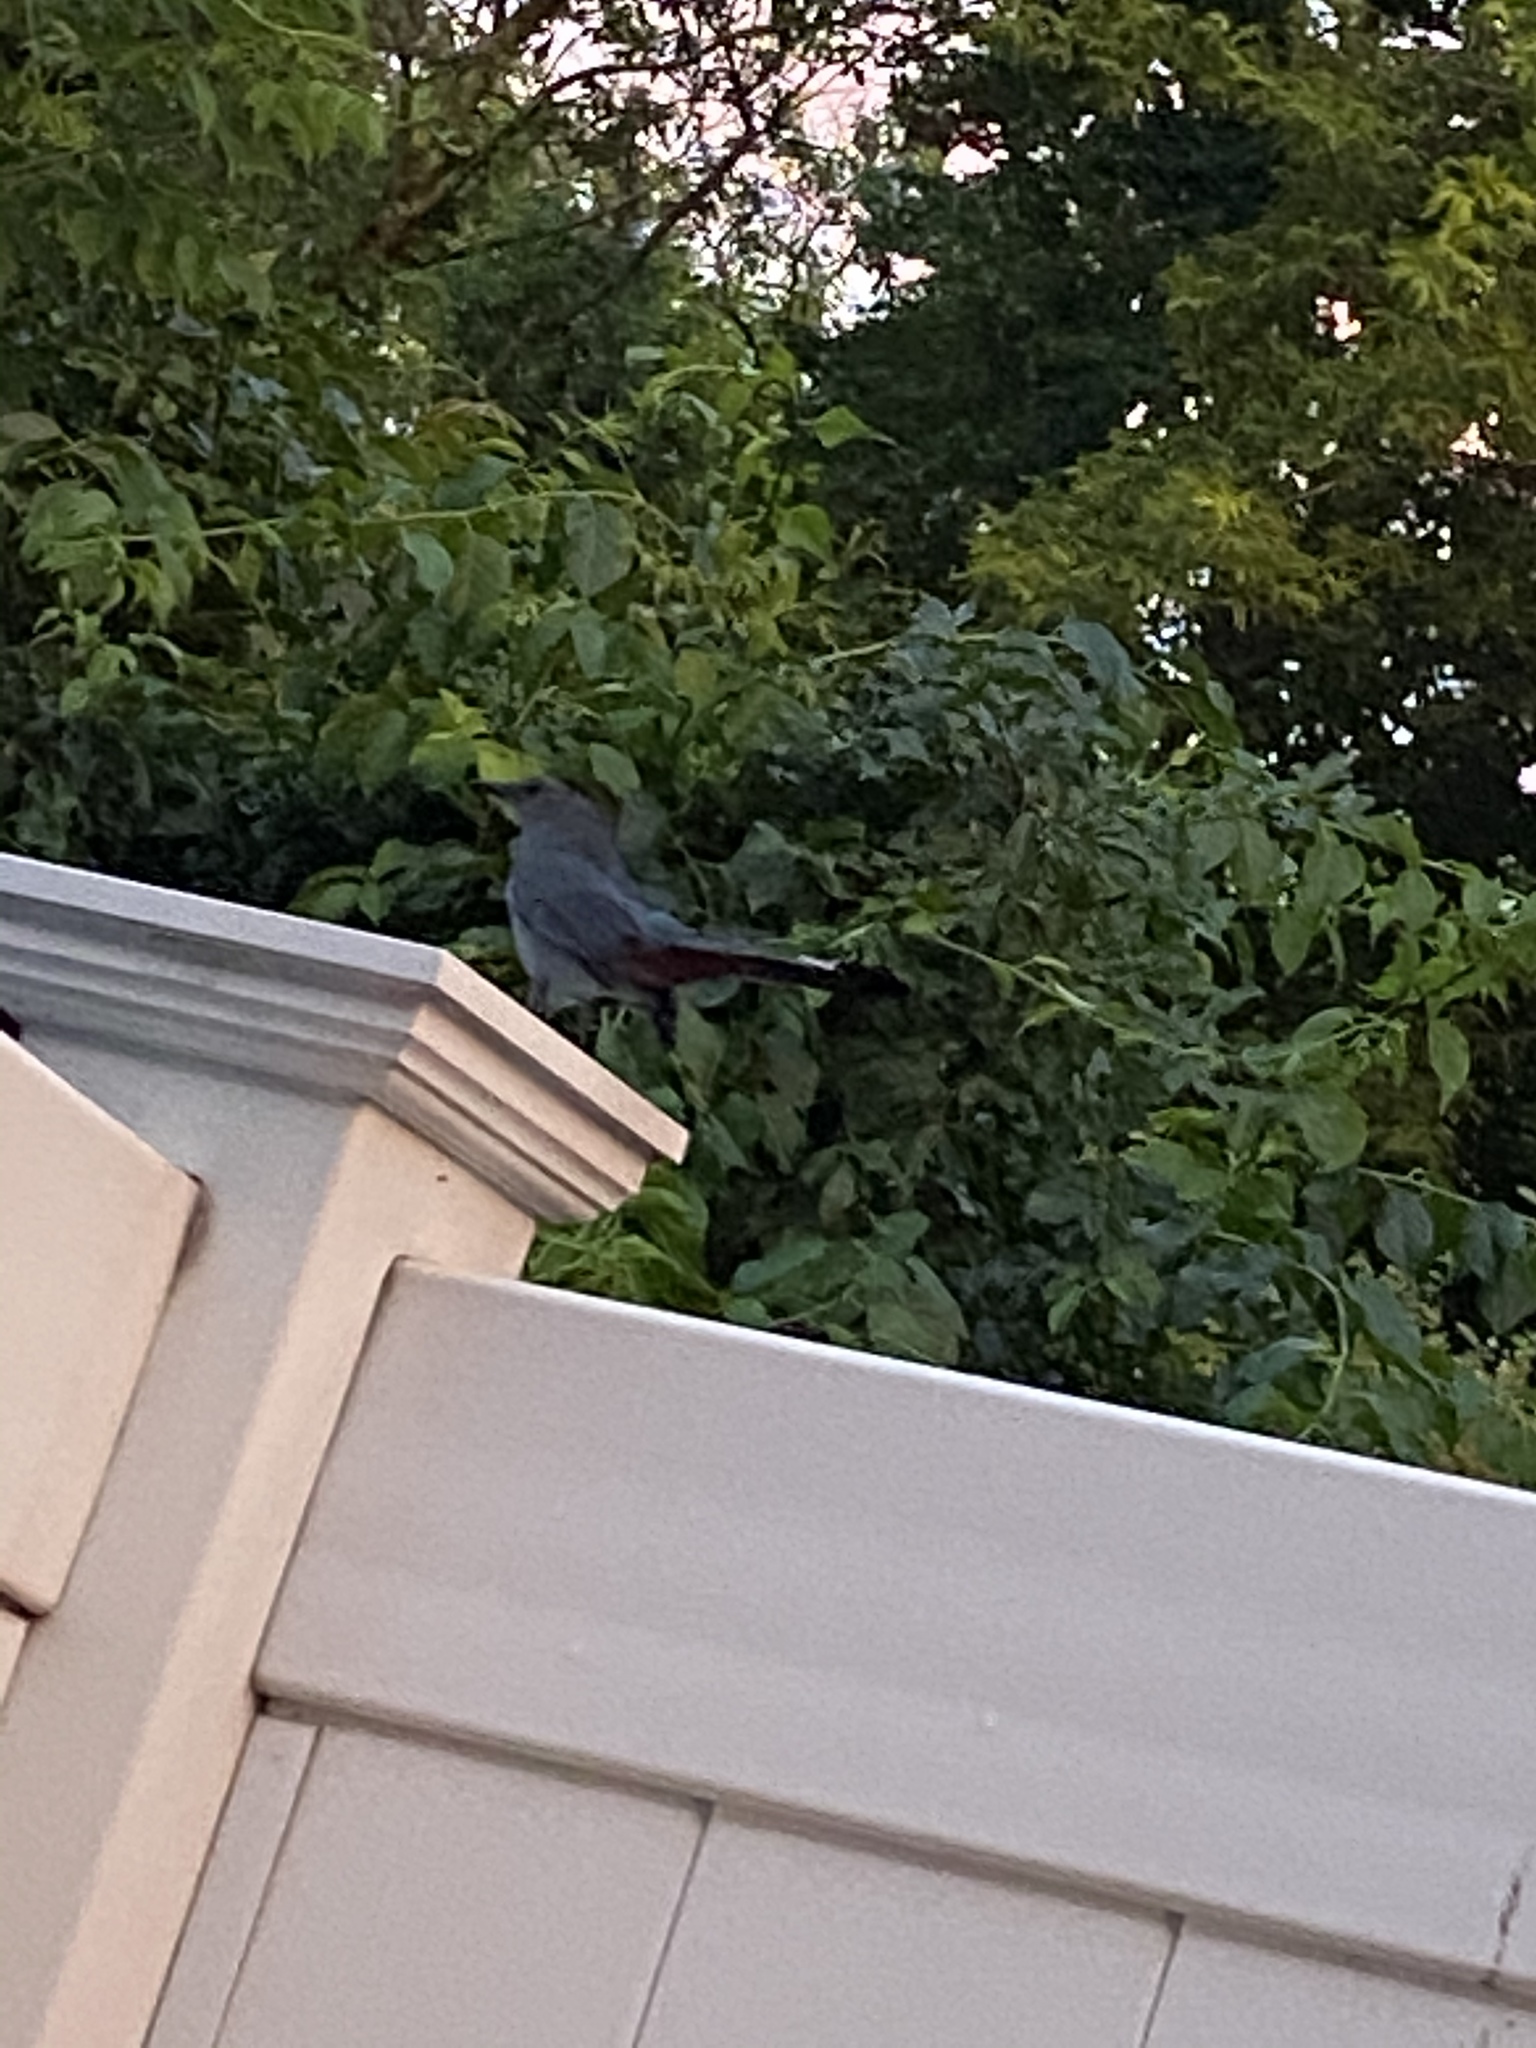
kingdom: Animalia
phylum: Chordata
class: Aves
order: Passeriformes
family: Mimidae
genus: Dumetella
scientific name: Dumetella carolinensis
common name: Gray catbird
